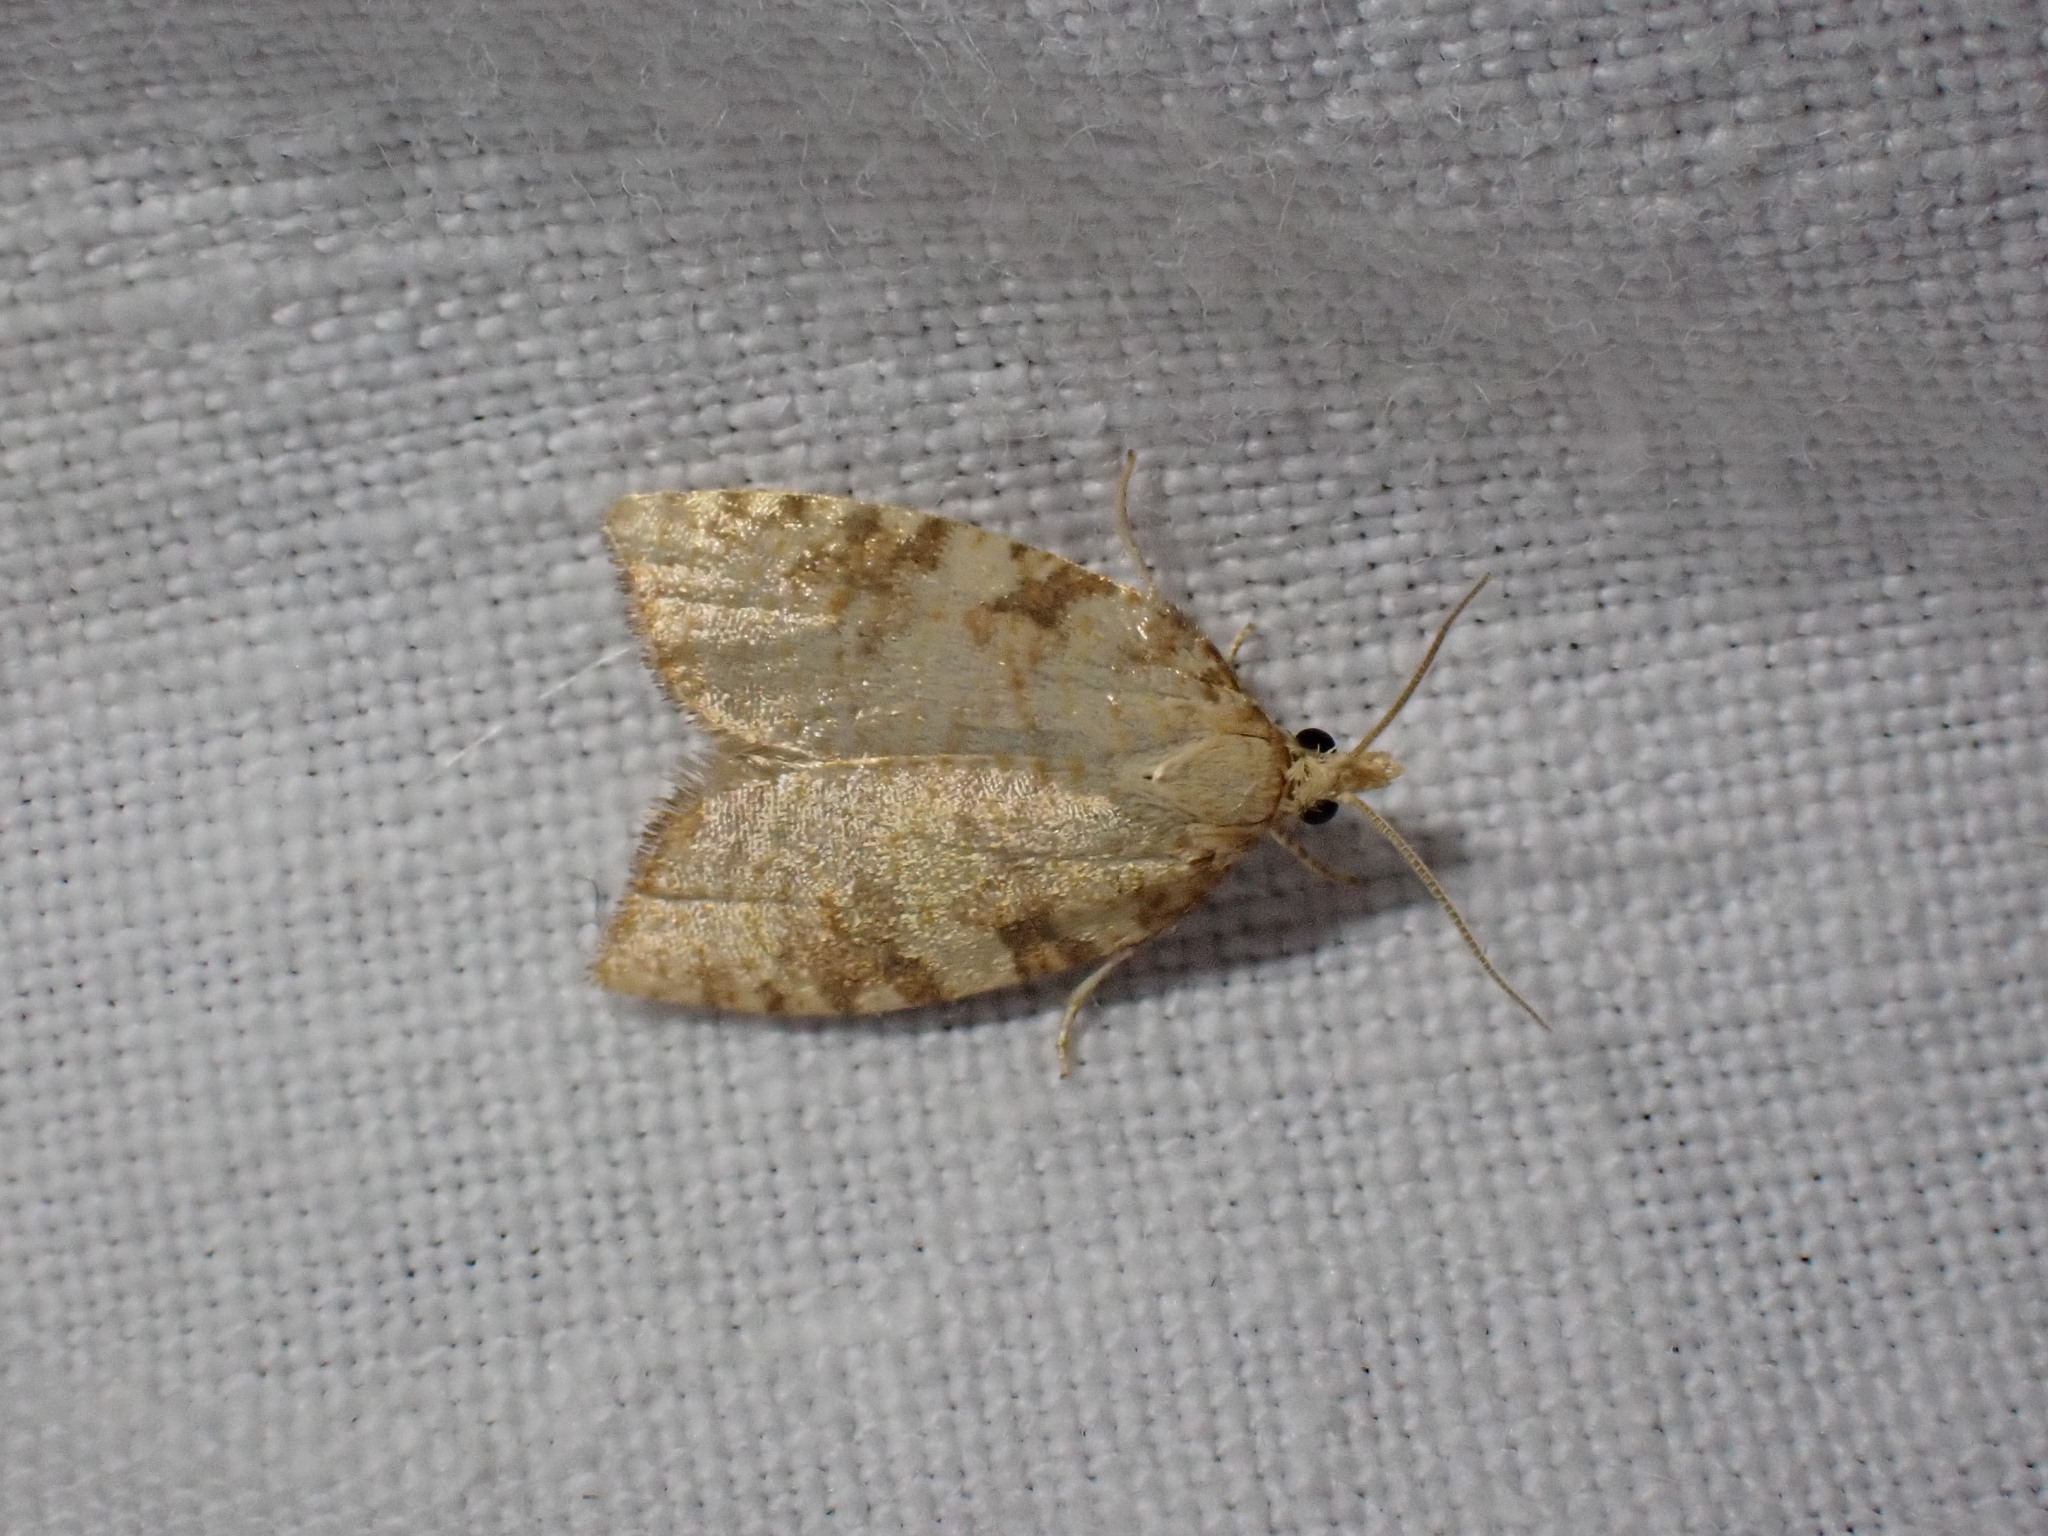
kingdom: Animalia
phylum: Arthropoda
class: Insecta
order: Lepidoptera
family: Tortricidae
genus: Aleimma
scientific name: Aleimma loeflingiana
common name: Yellow oak button
